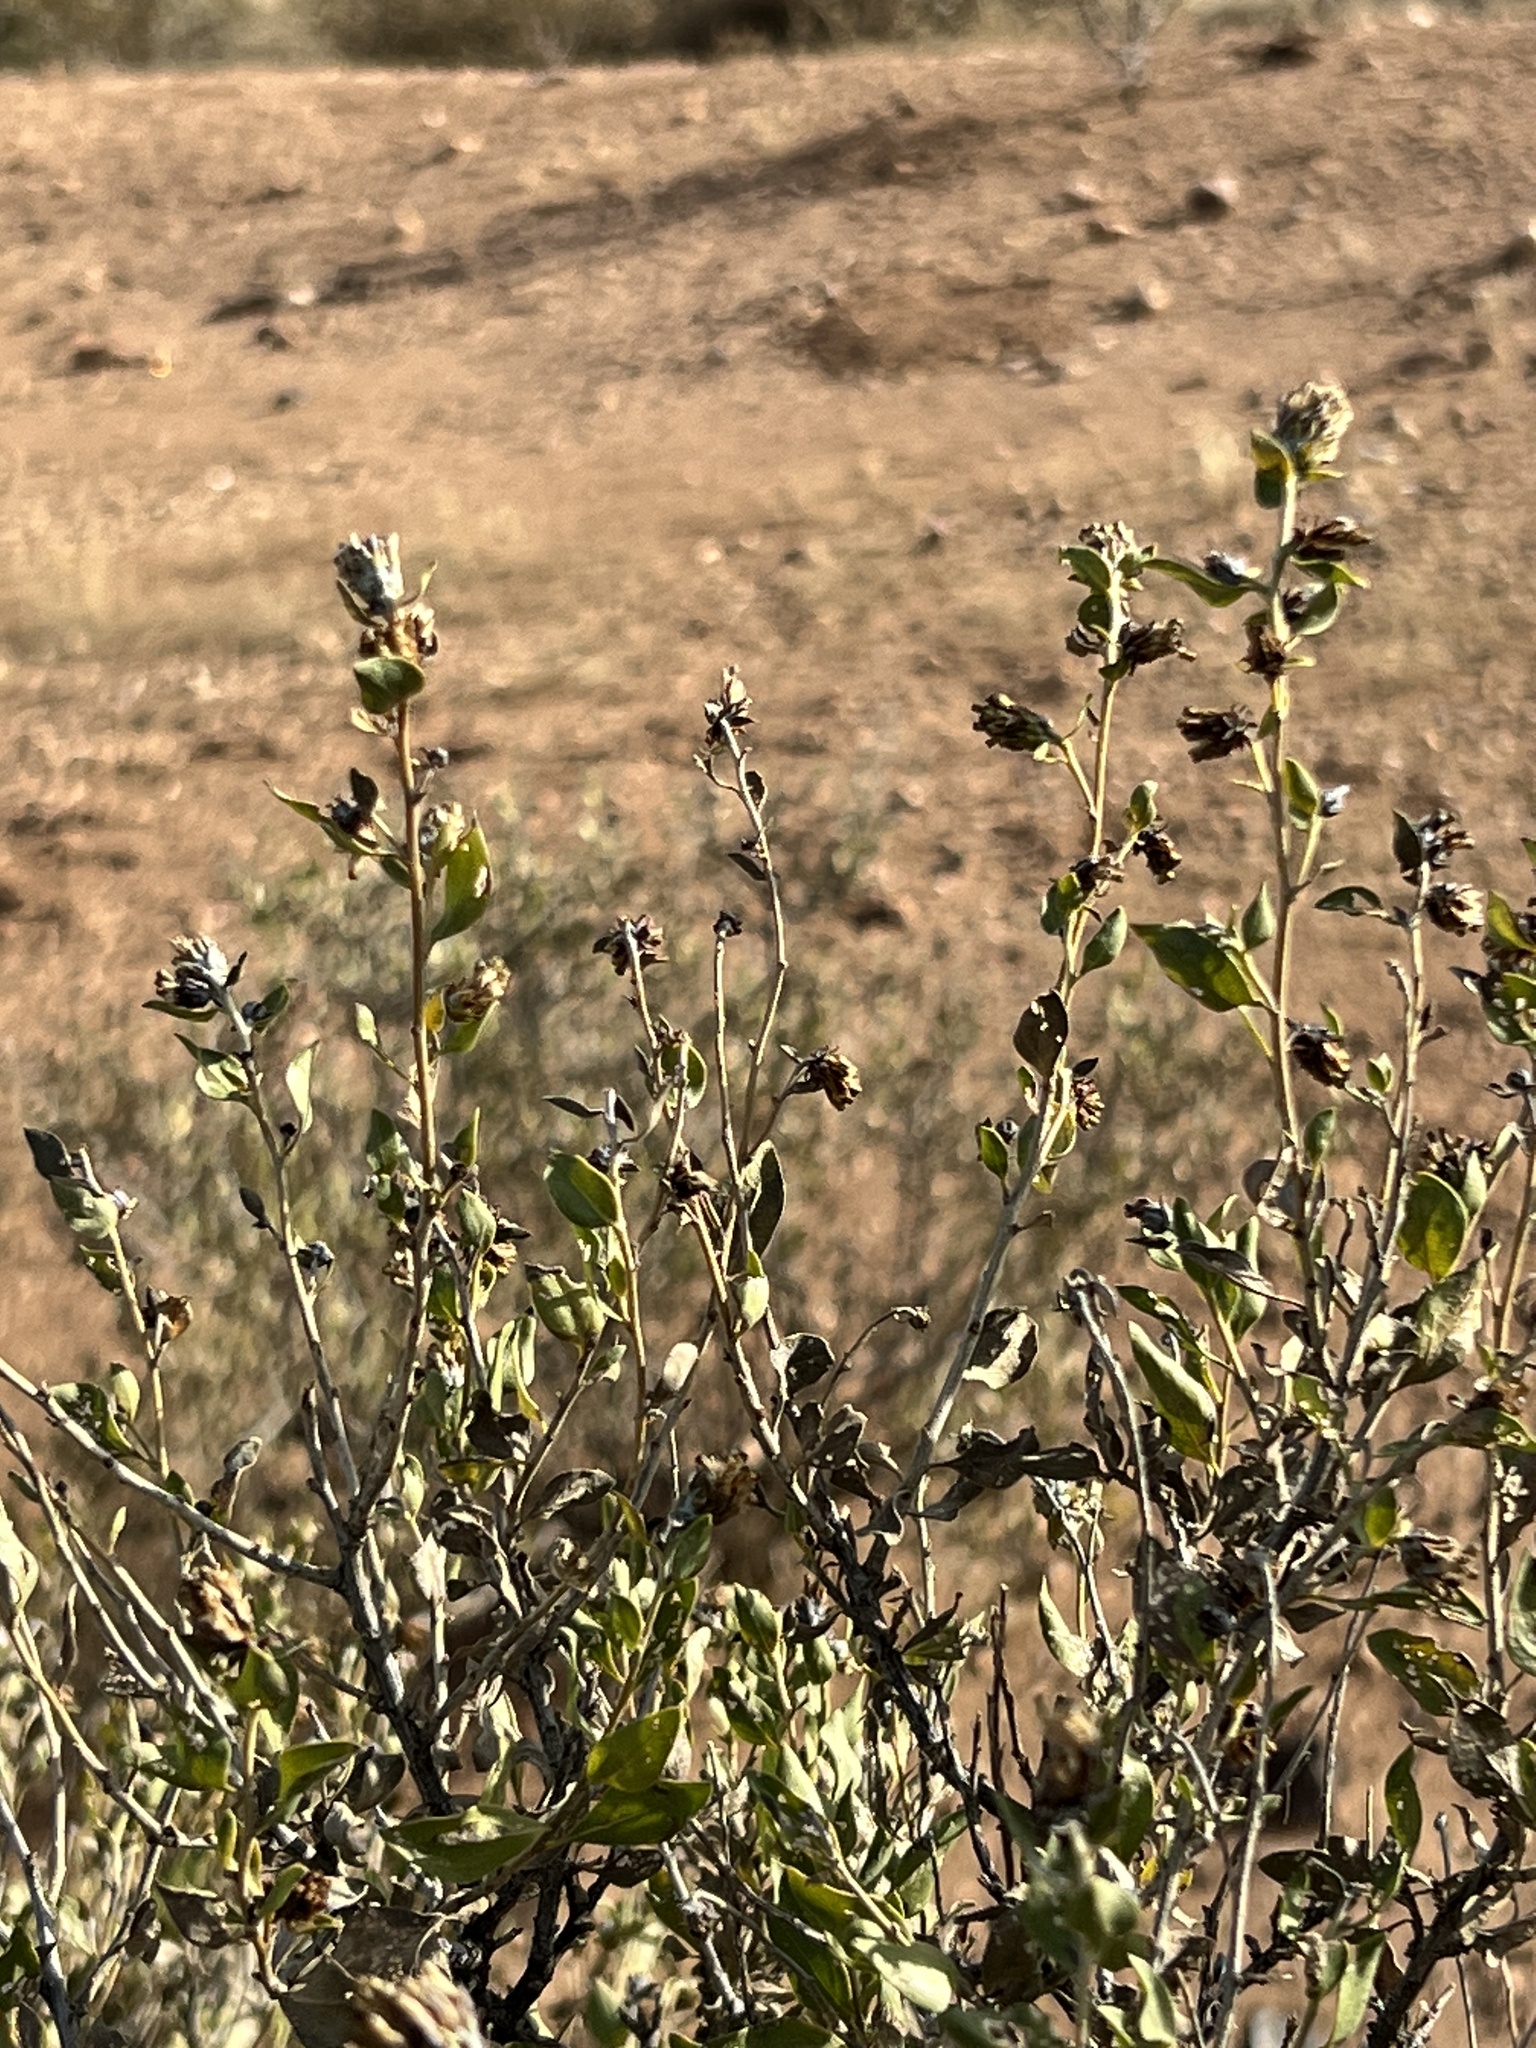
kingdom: Plantae
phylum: Tracheophyta
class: Magnoliopsida
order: Asterales
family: Asteraceae
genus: Flourensia
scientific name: Flourensia cernua
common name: Varnishbush
